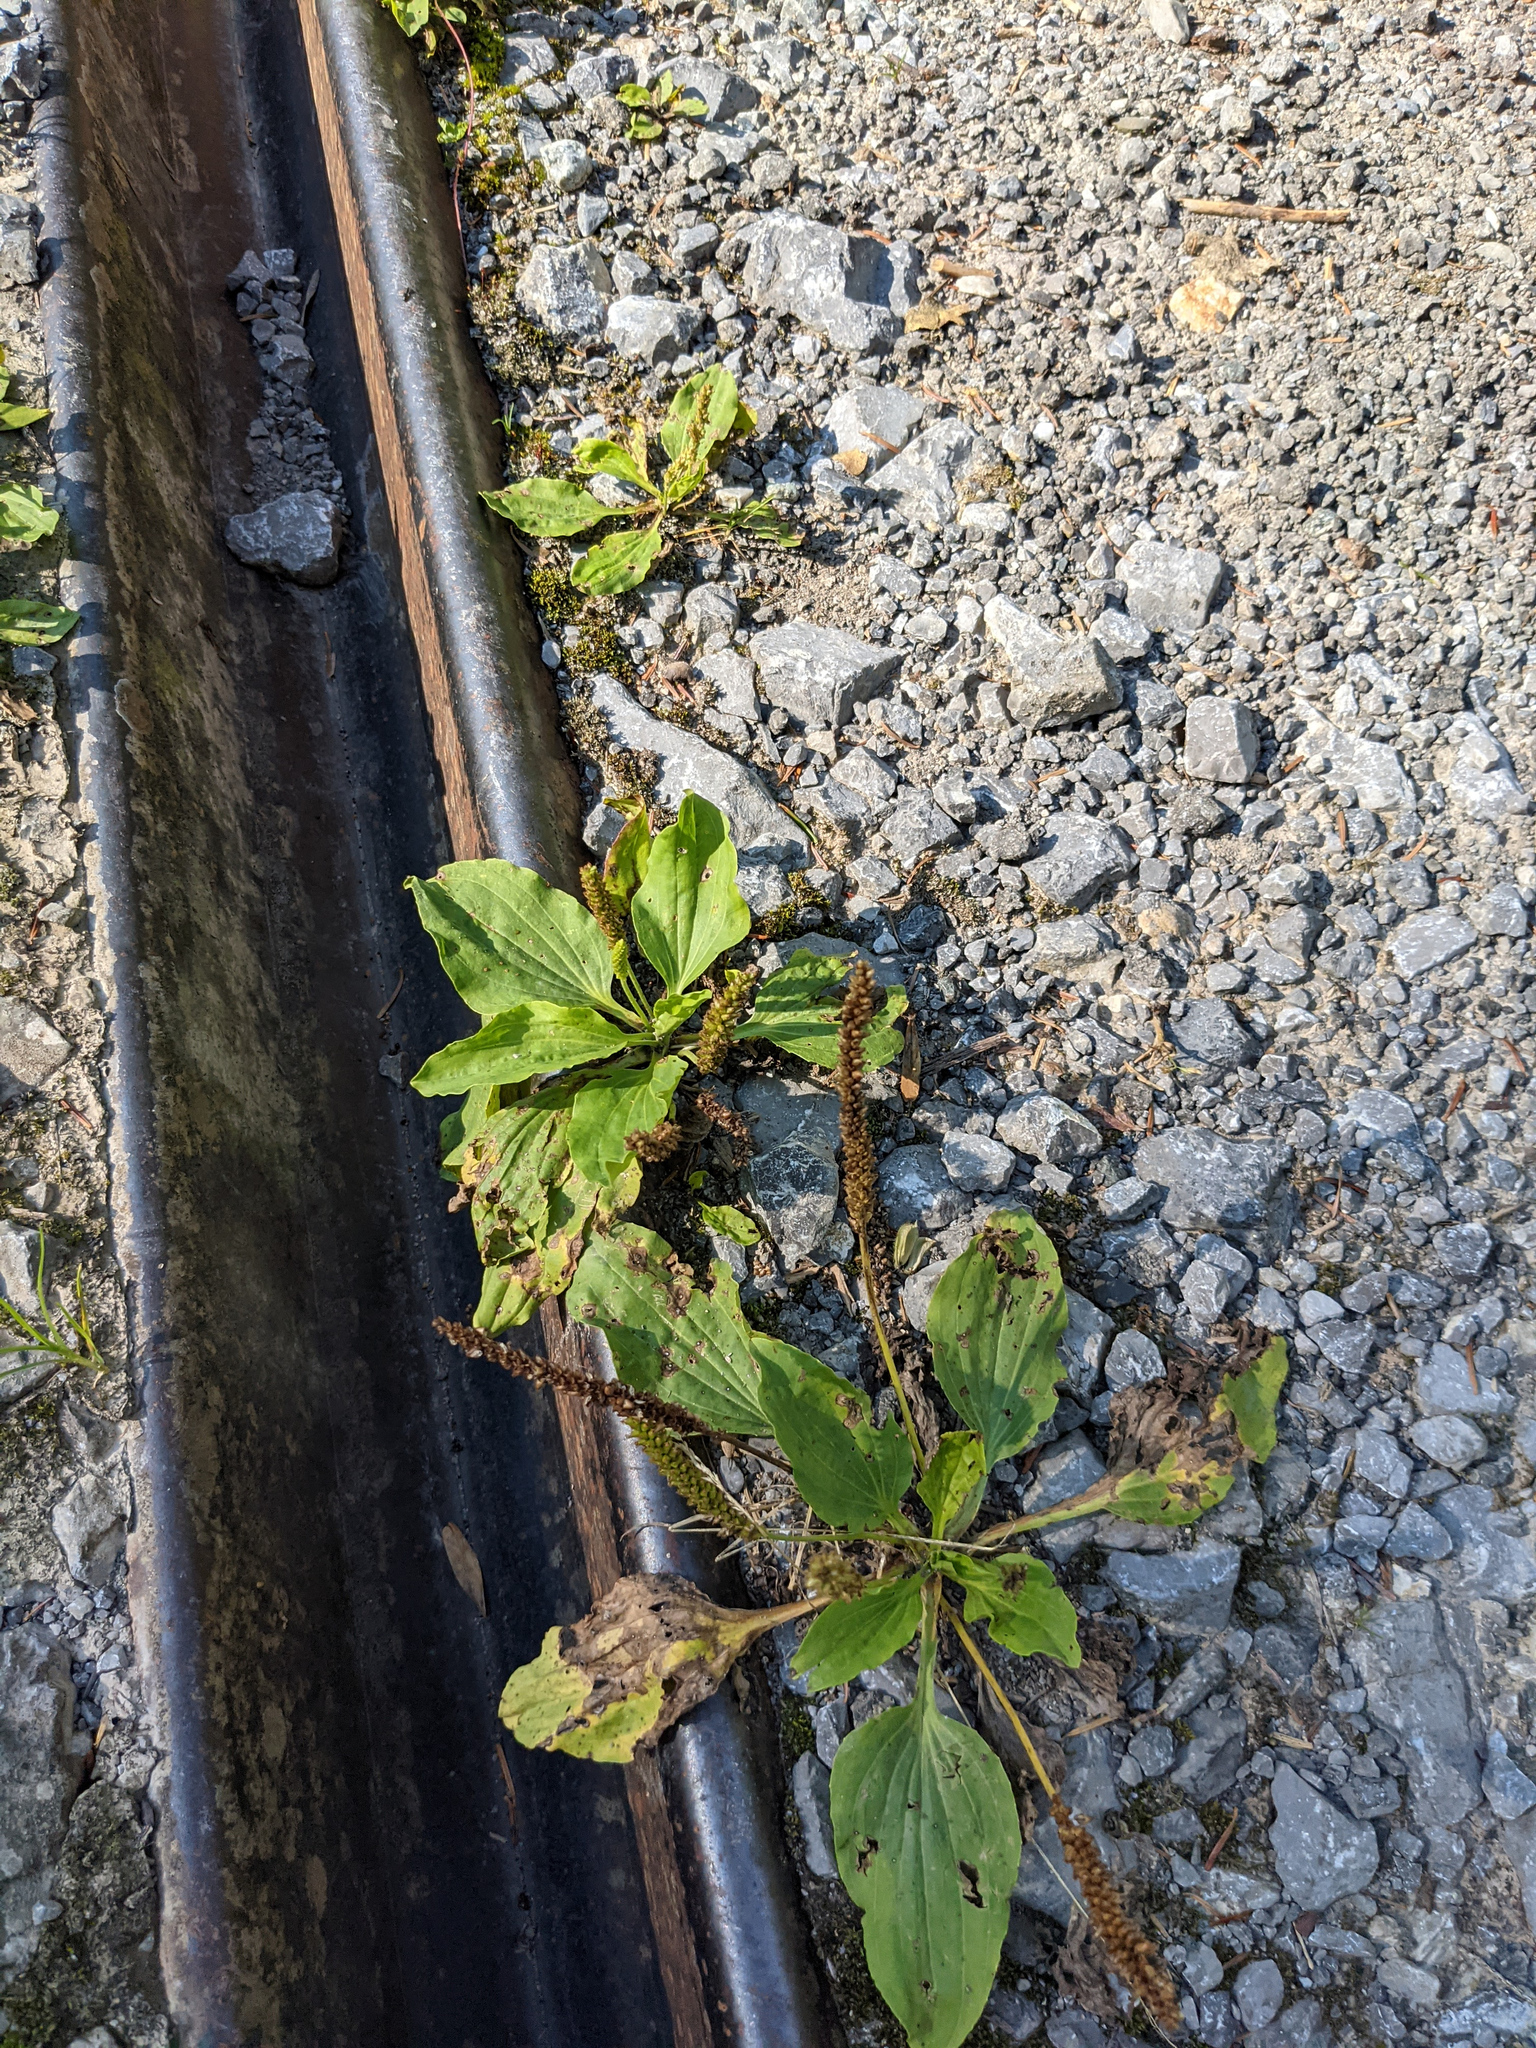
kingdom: Plantae
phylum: Tracheophyta
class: Magnoliopsida
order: Lamiales
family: Plantaginaceae
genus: Plantago
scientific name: Plantago major
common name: Common plantain
